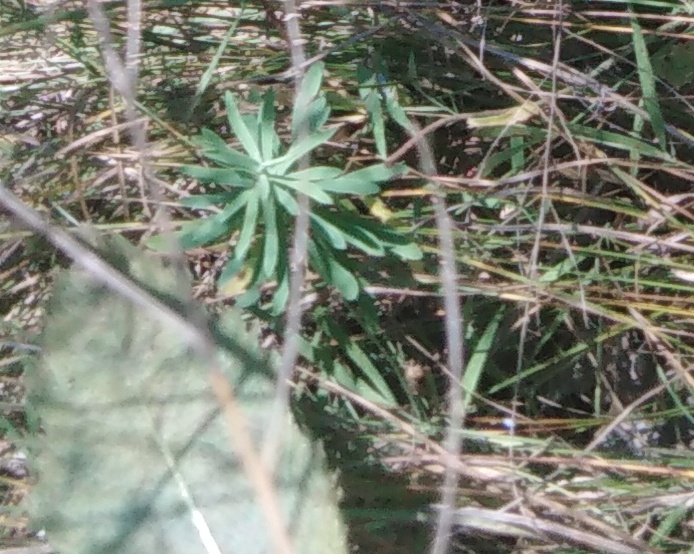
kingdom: Plantae
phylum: Tracheophyta
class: Magnoliopsida
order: Lamiales
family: Plantaginaceae
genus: Linaria
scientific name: Linaria vulgaris
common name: Butter and eggs
